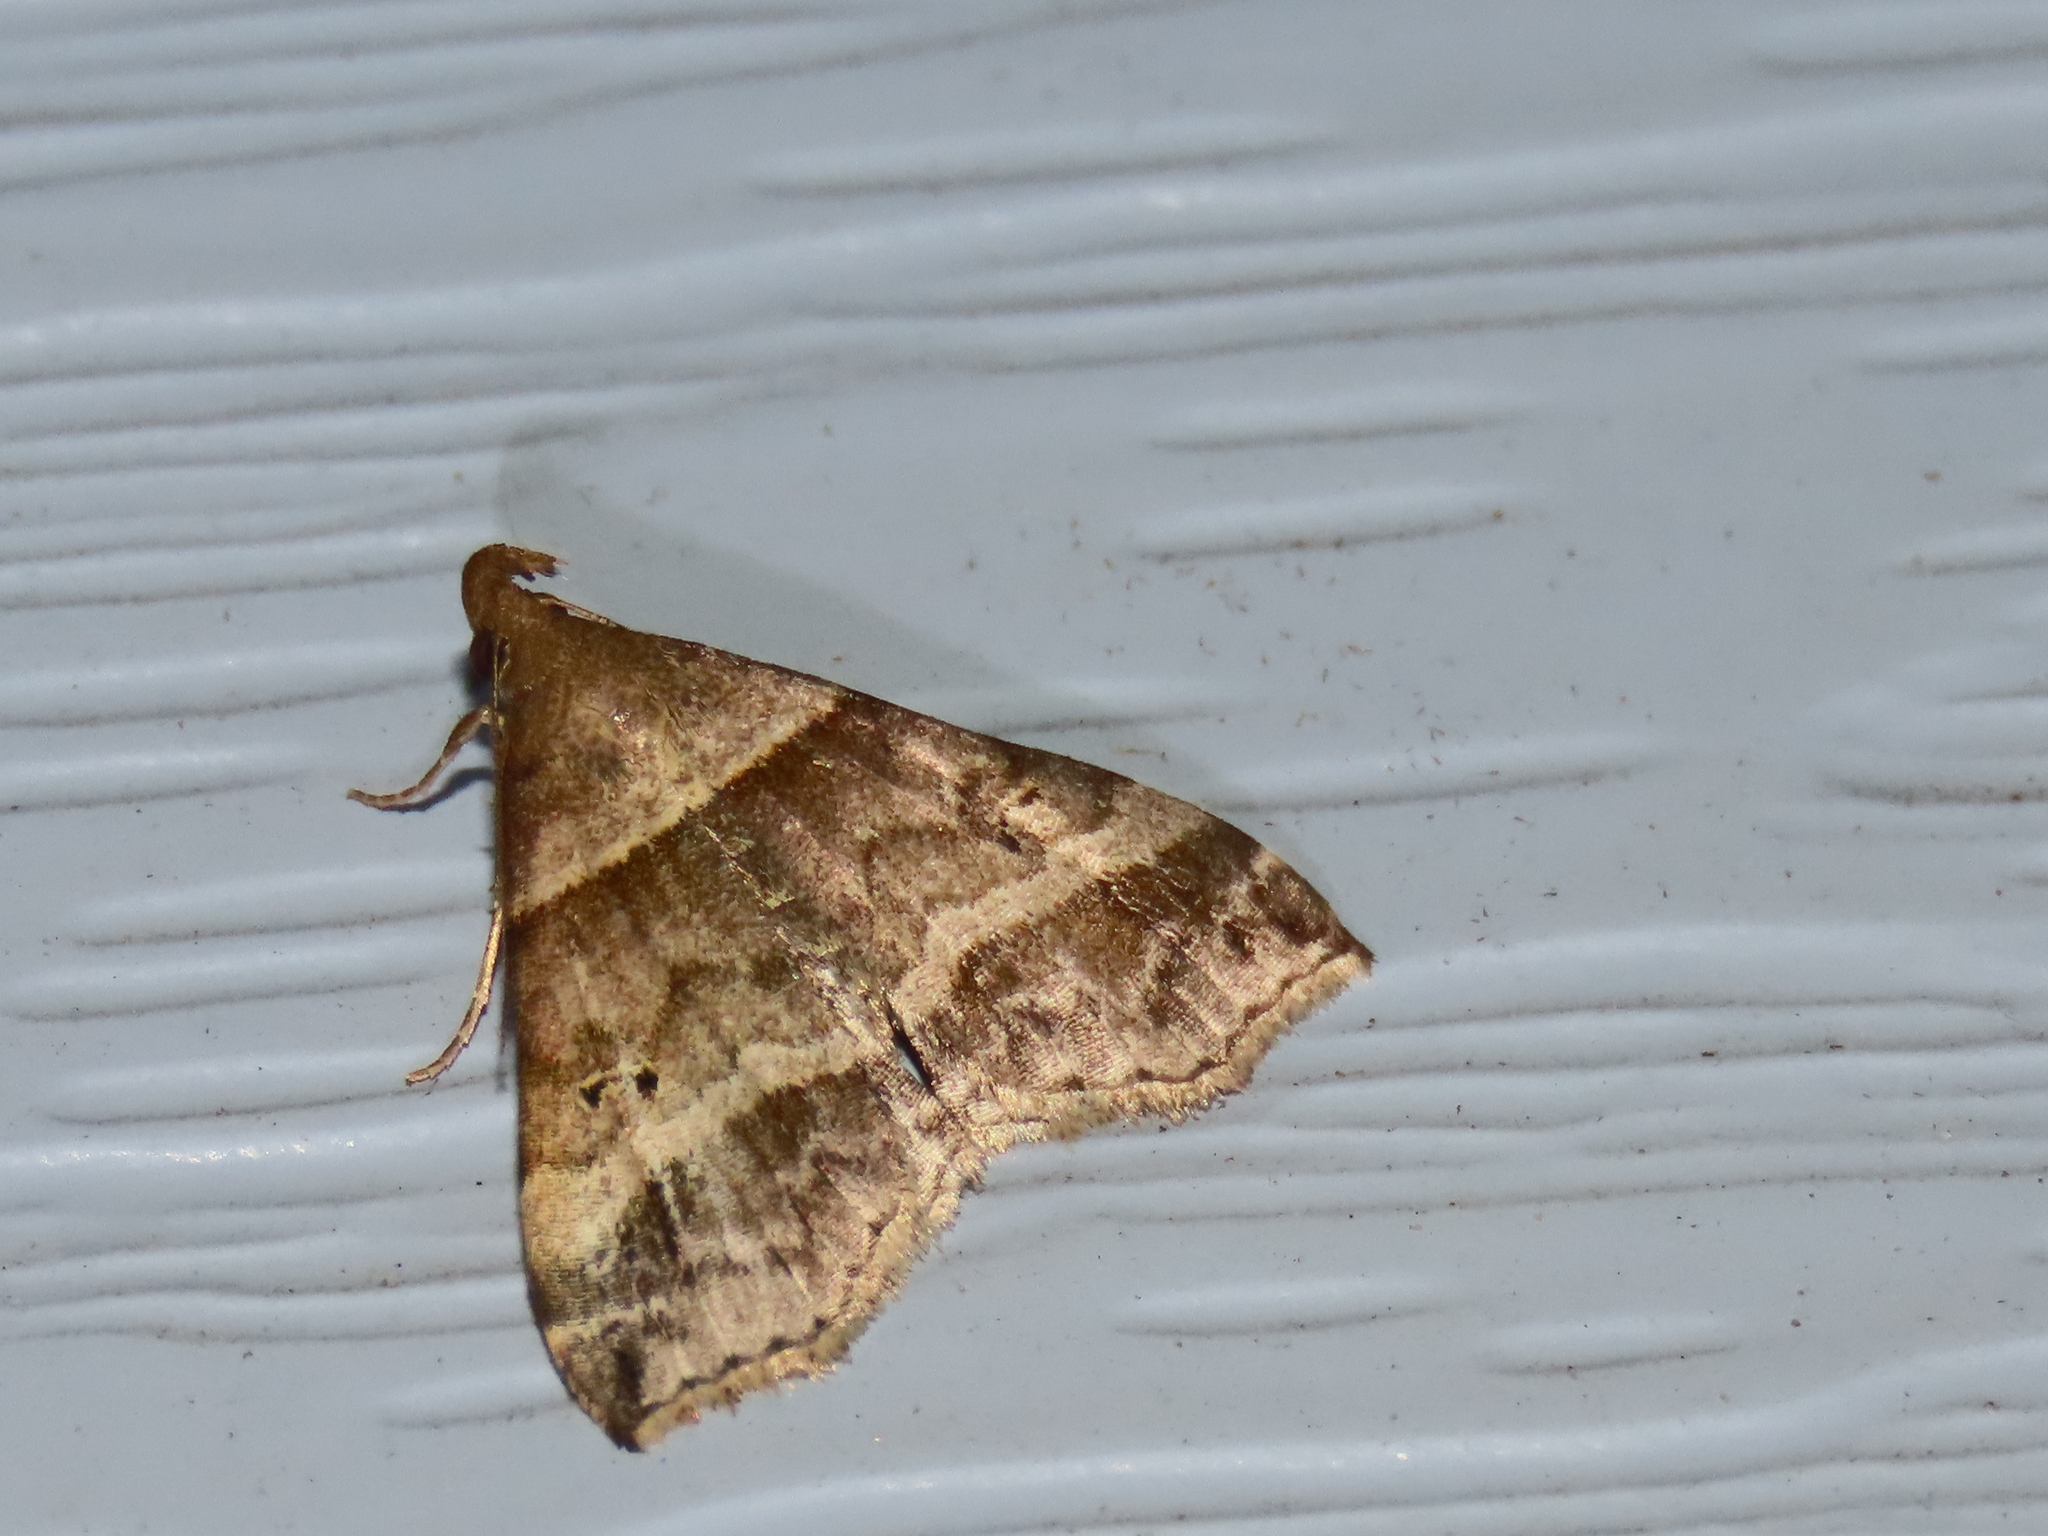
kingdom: Animalia
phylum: Arthropoda
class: Insecta
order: Lepidoptera
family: Erebidae
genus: Phaeolita
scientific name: Phaeolita pyramusalis
